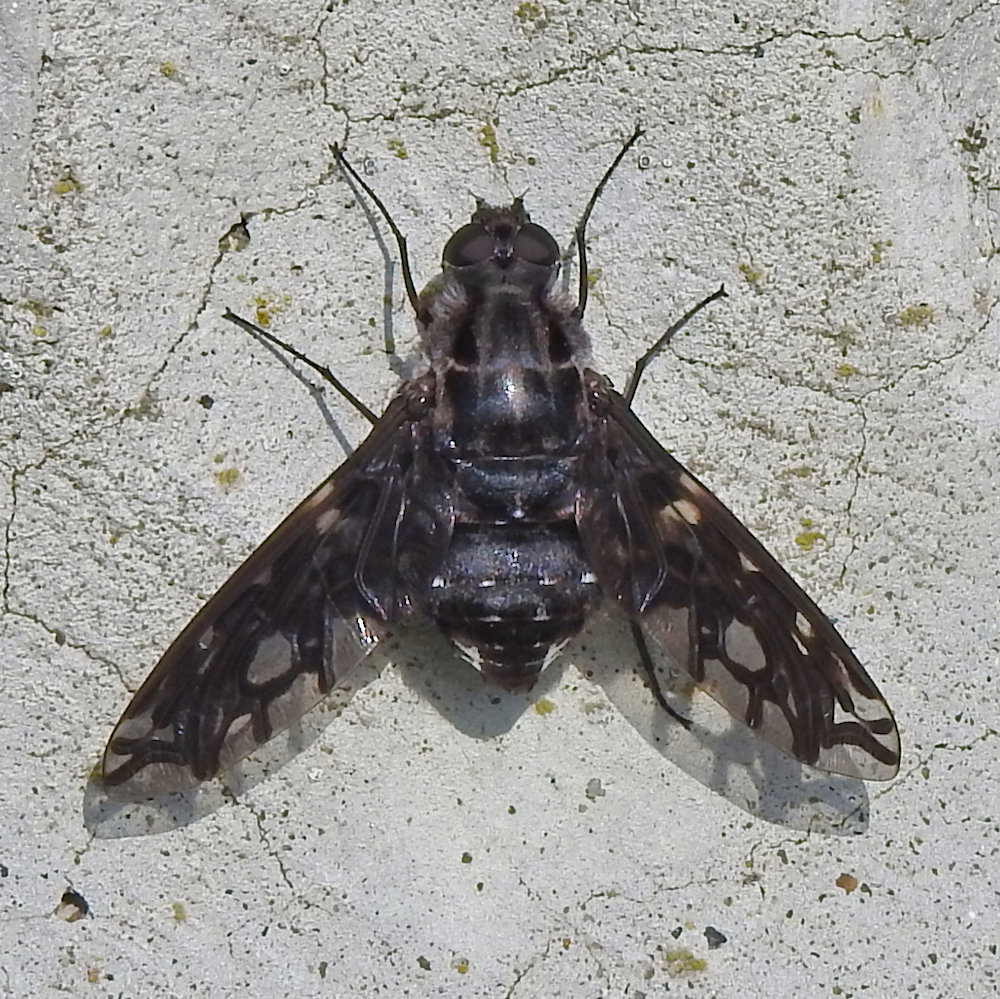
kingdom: Animalia
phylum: Arthropoda
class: Insecta
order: Diptera
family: Bombyliidae
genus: Xenox
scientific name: Xenox tigrinus
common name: Tiger bee fly
